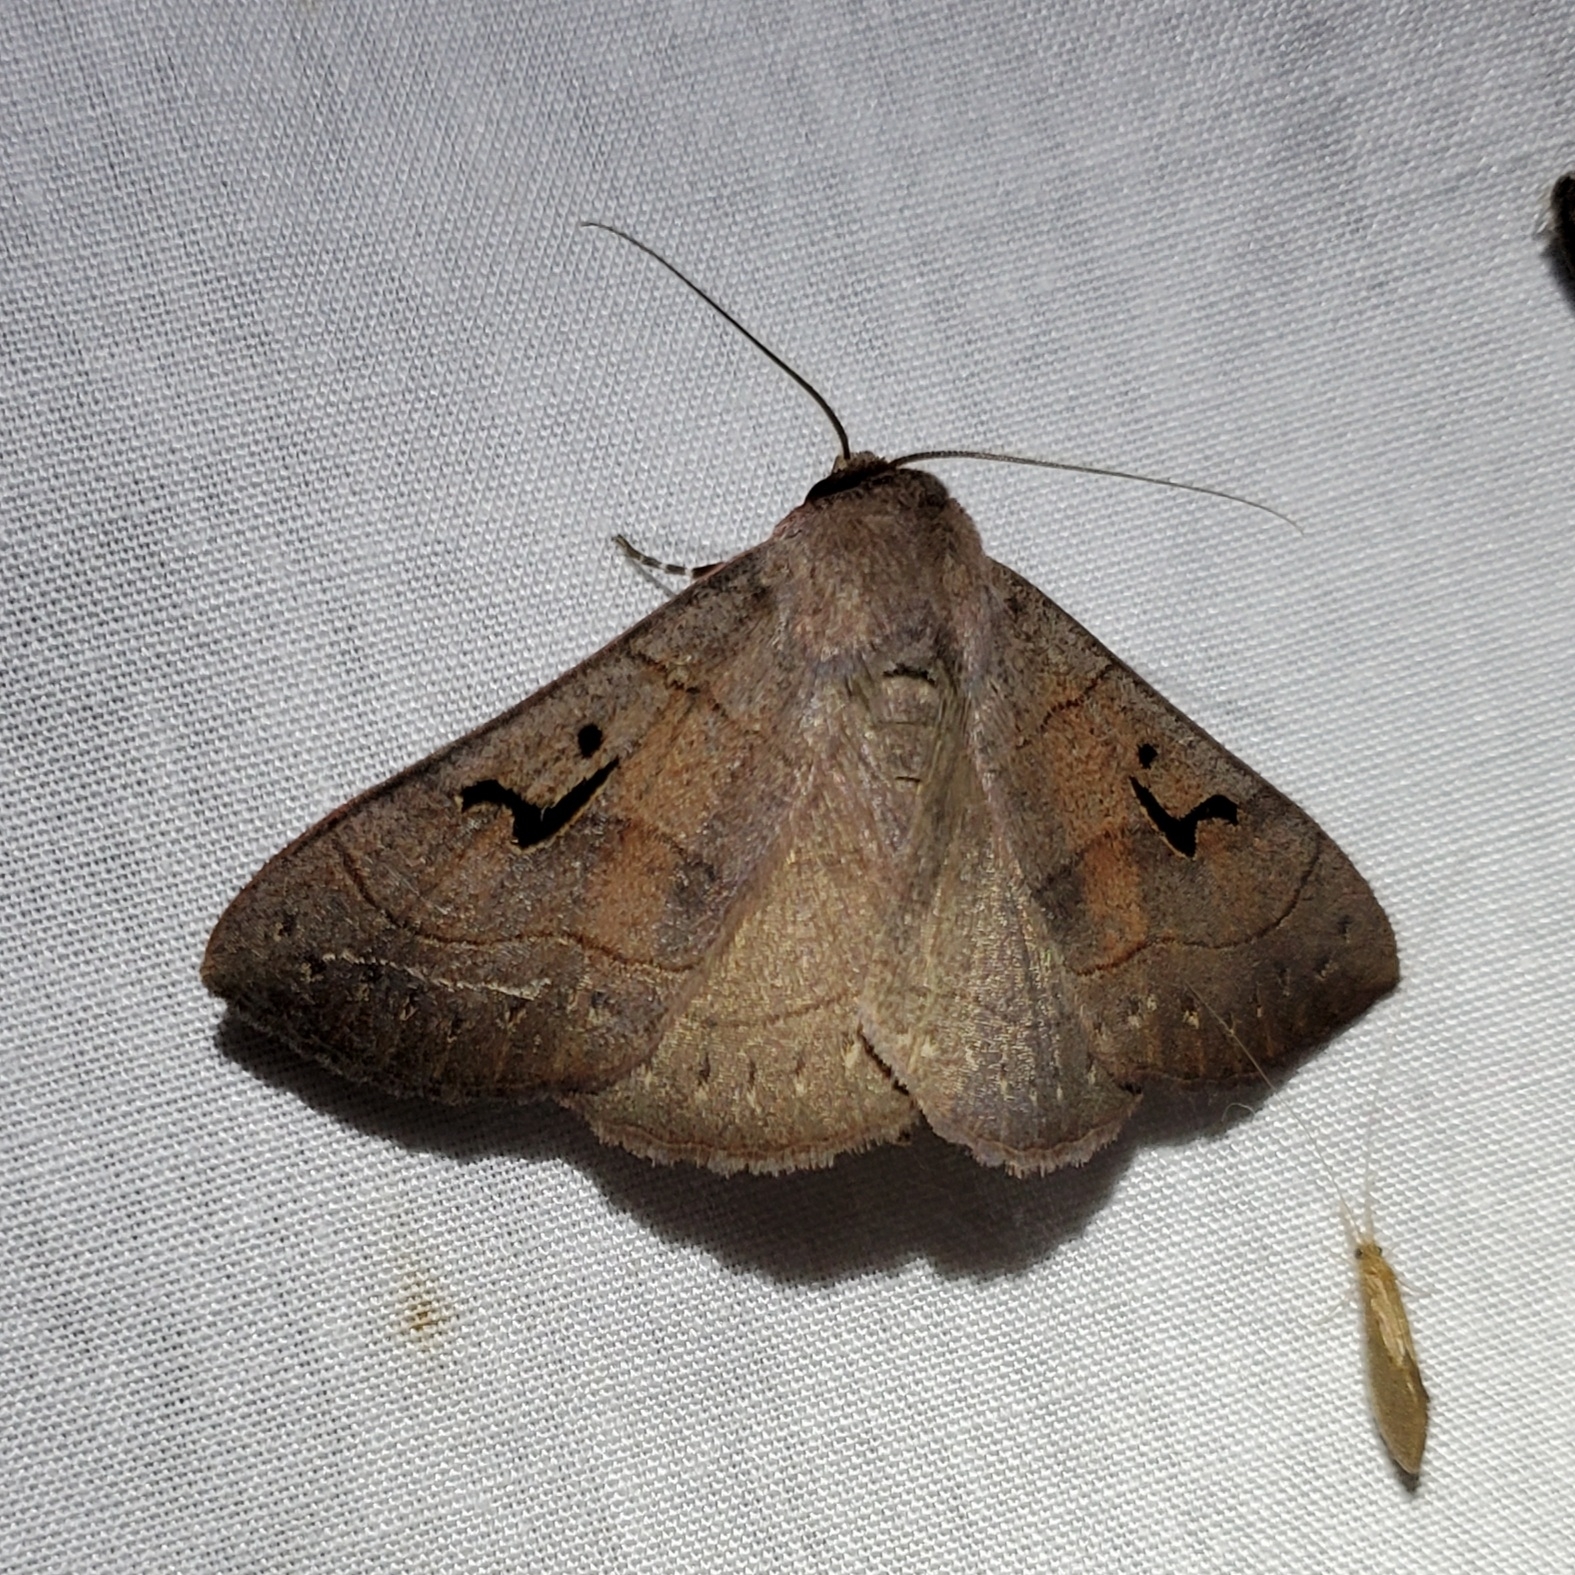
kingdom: Animalia
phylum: Arthropoda
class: Insecta
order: Lepidoptera
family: Erebidae
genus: Panopoda
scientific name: Panopoda carneicosta
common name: Brown panopoda moth
